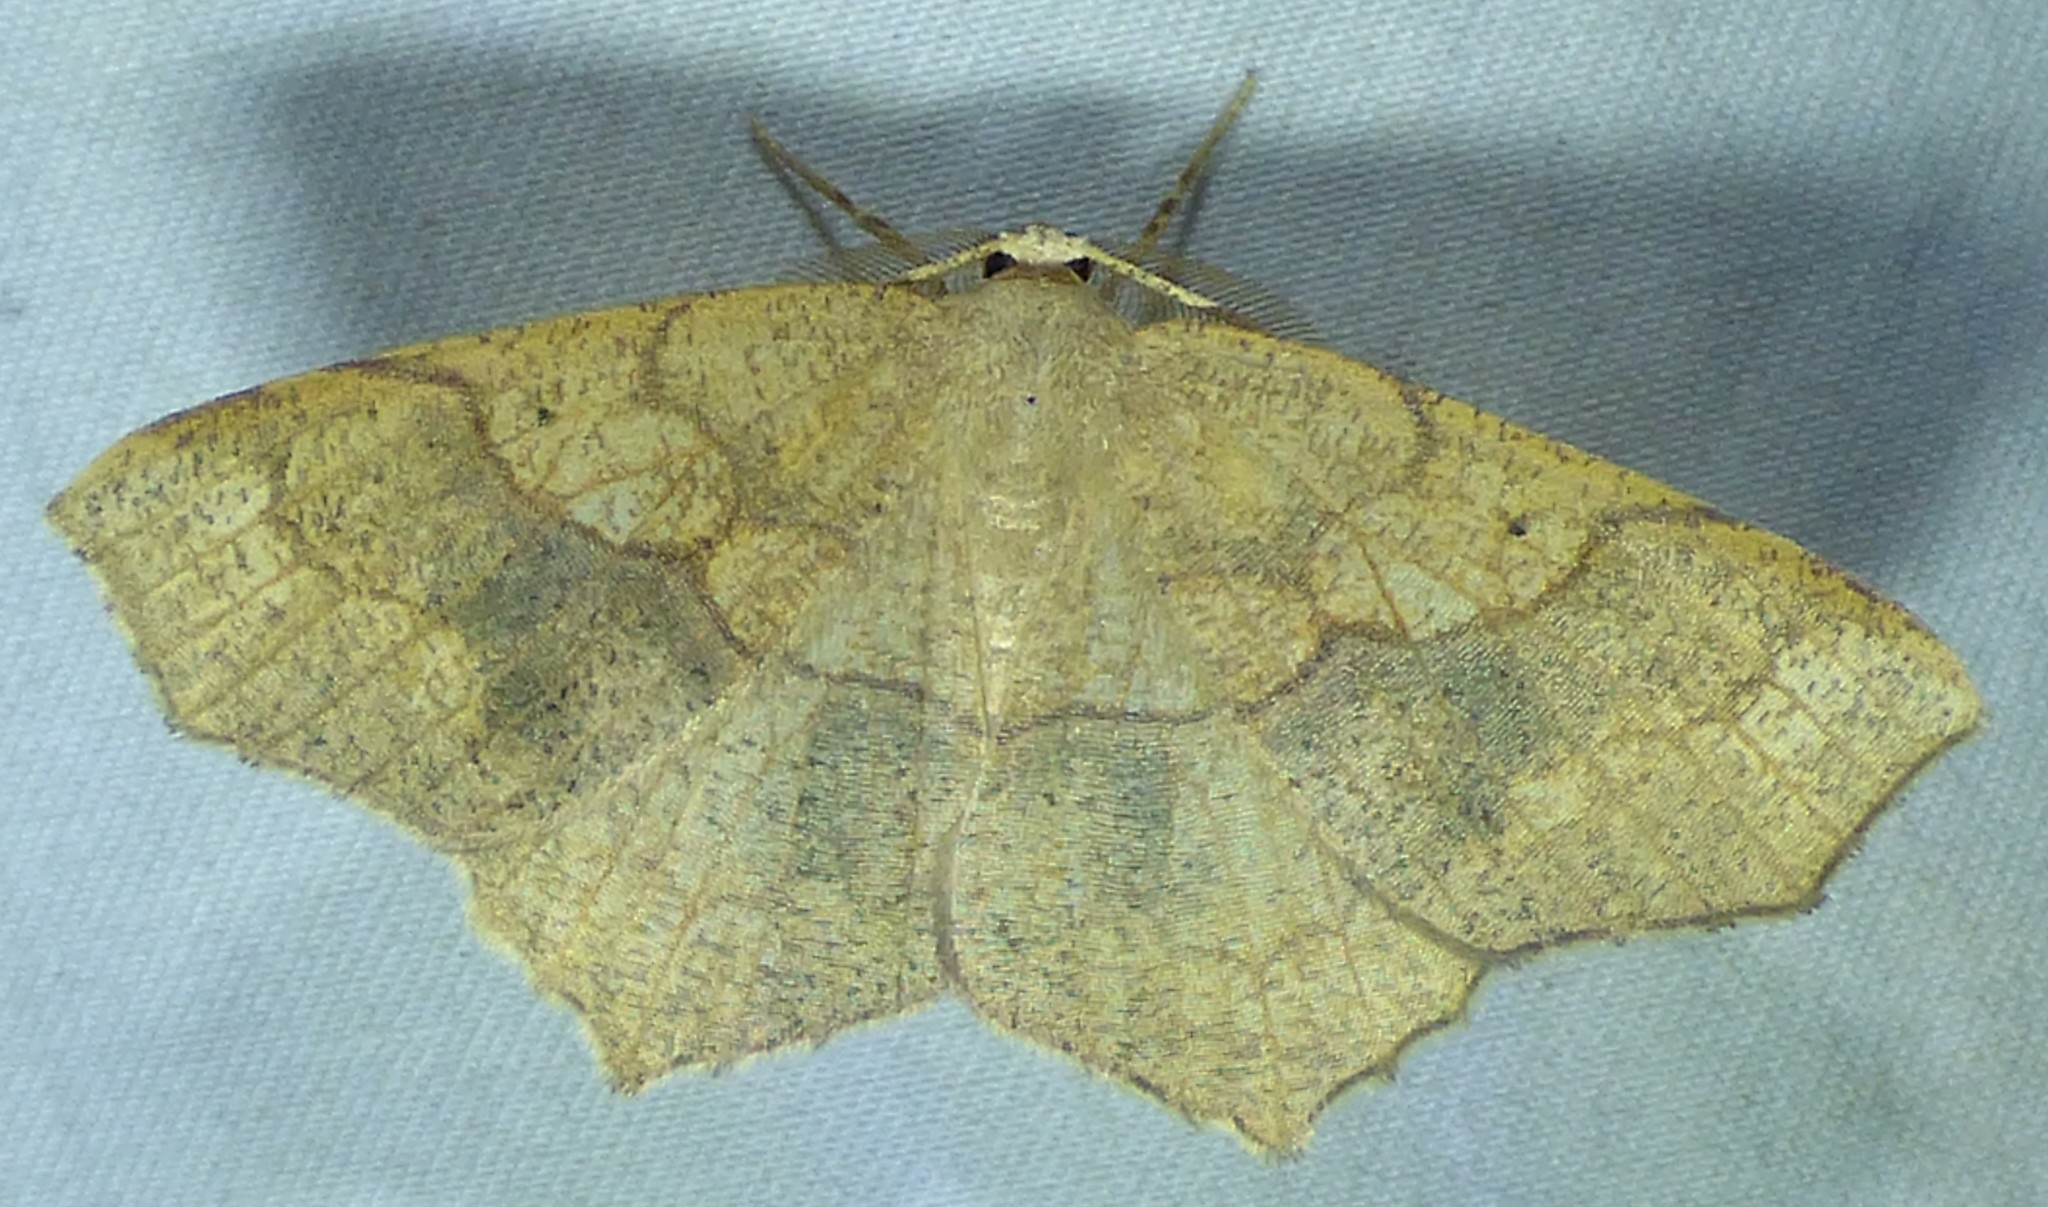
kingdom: Animalia
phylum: Arthropoda
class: Insecta
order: Lepidoptera
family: Geometridae
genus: Besma
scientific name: Besma quercivoraria
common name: Oak besma
